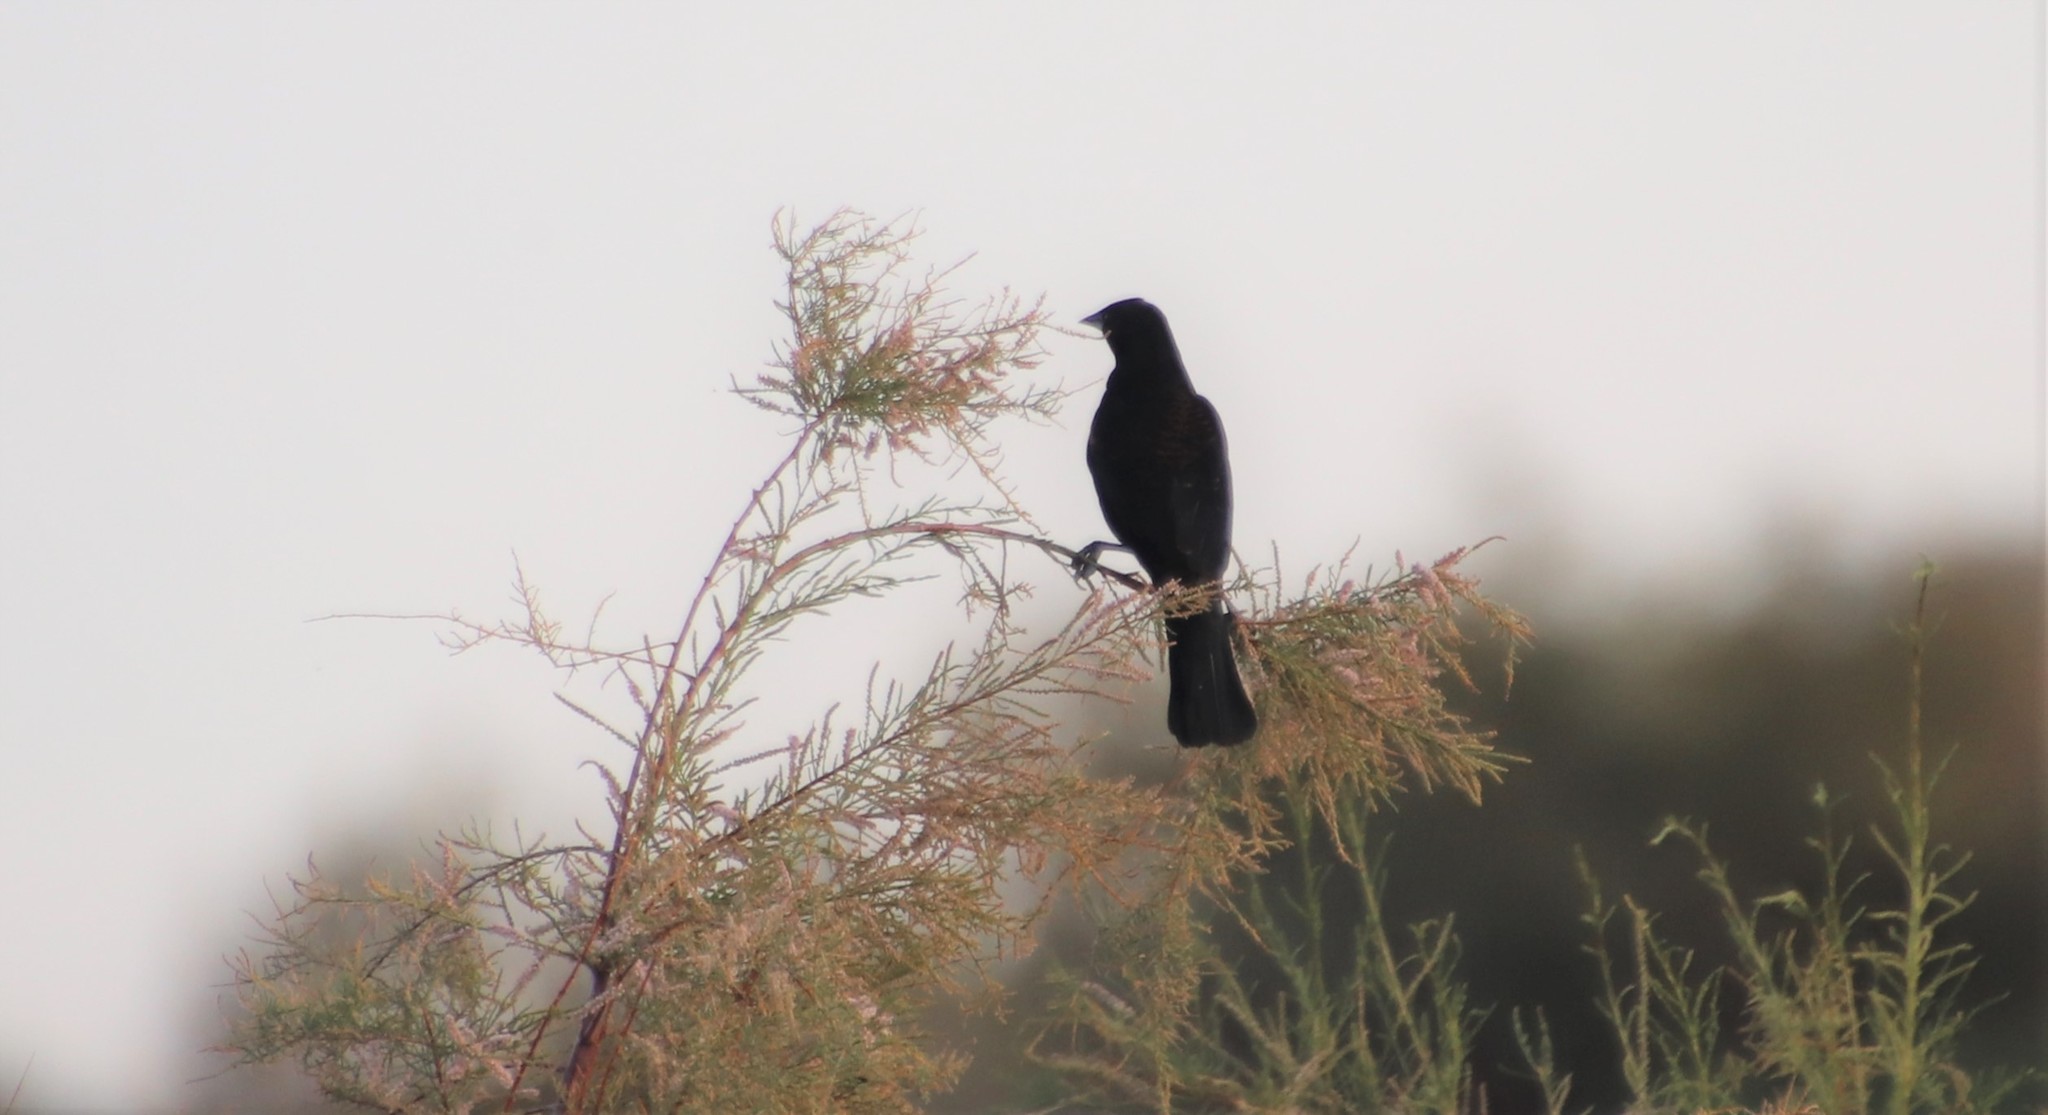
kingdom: Animalia
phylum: Chordata
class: Aves
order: Passeriformes
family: Icteridae
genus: Agelaius
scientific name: Agelaius phoeniceus
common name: Red-winged blackbird
